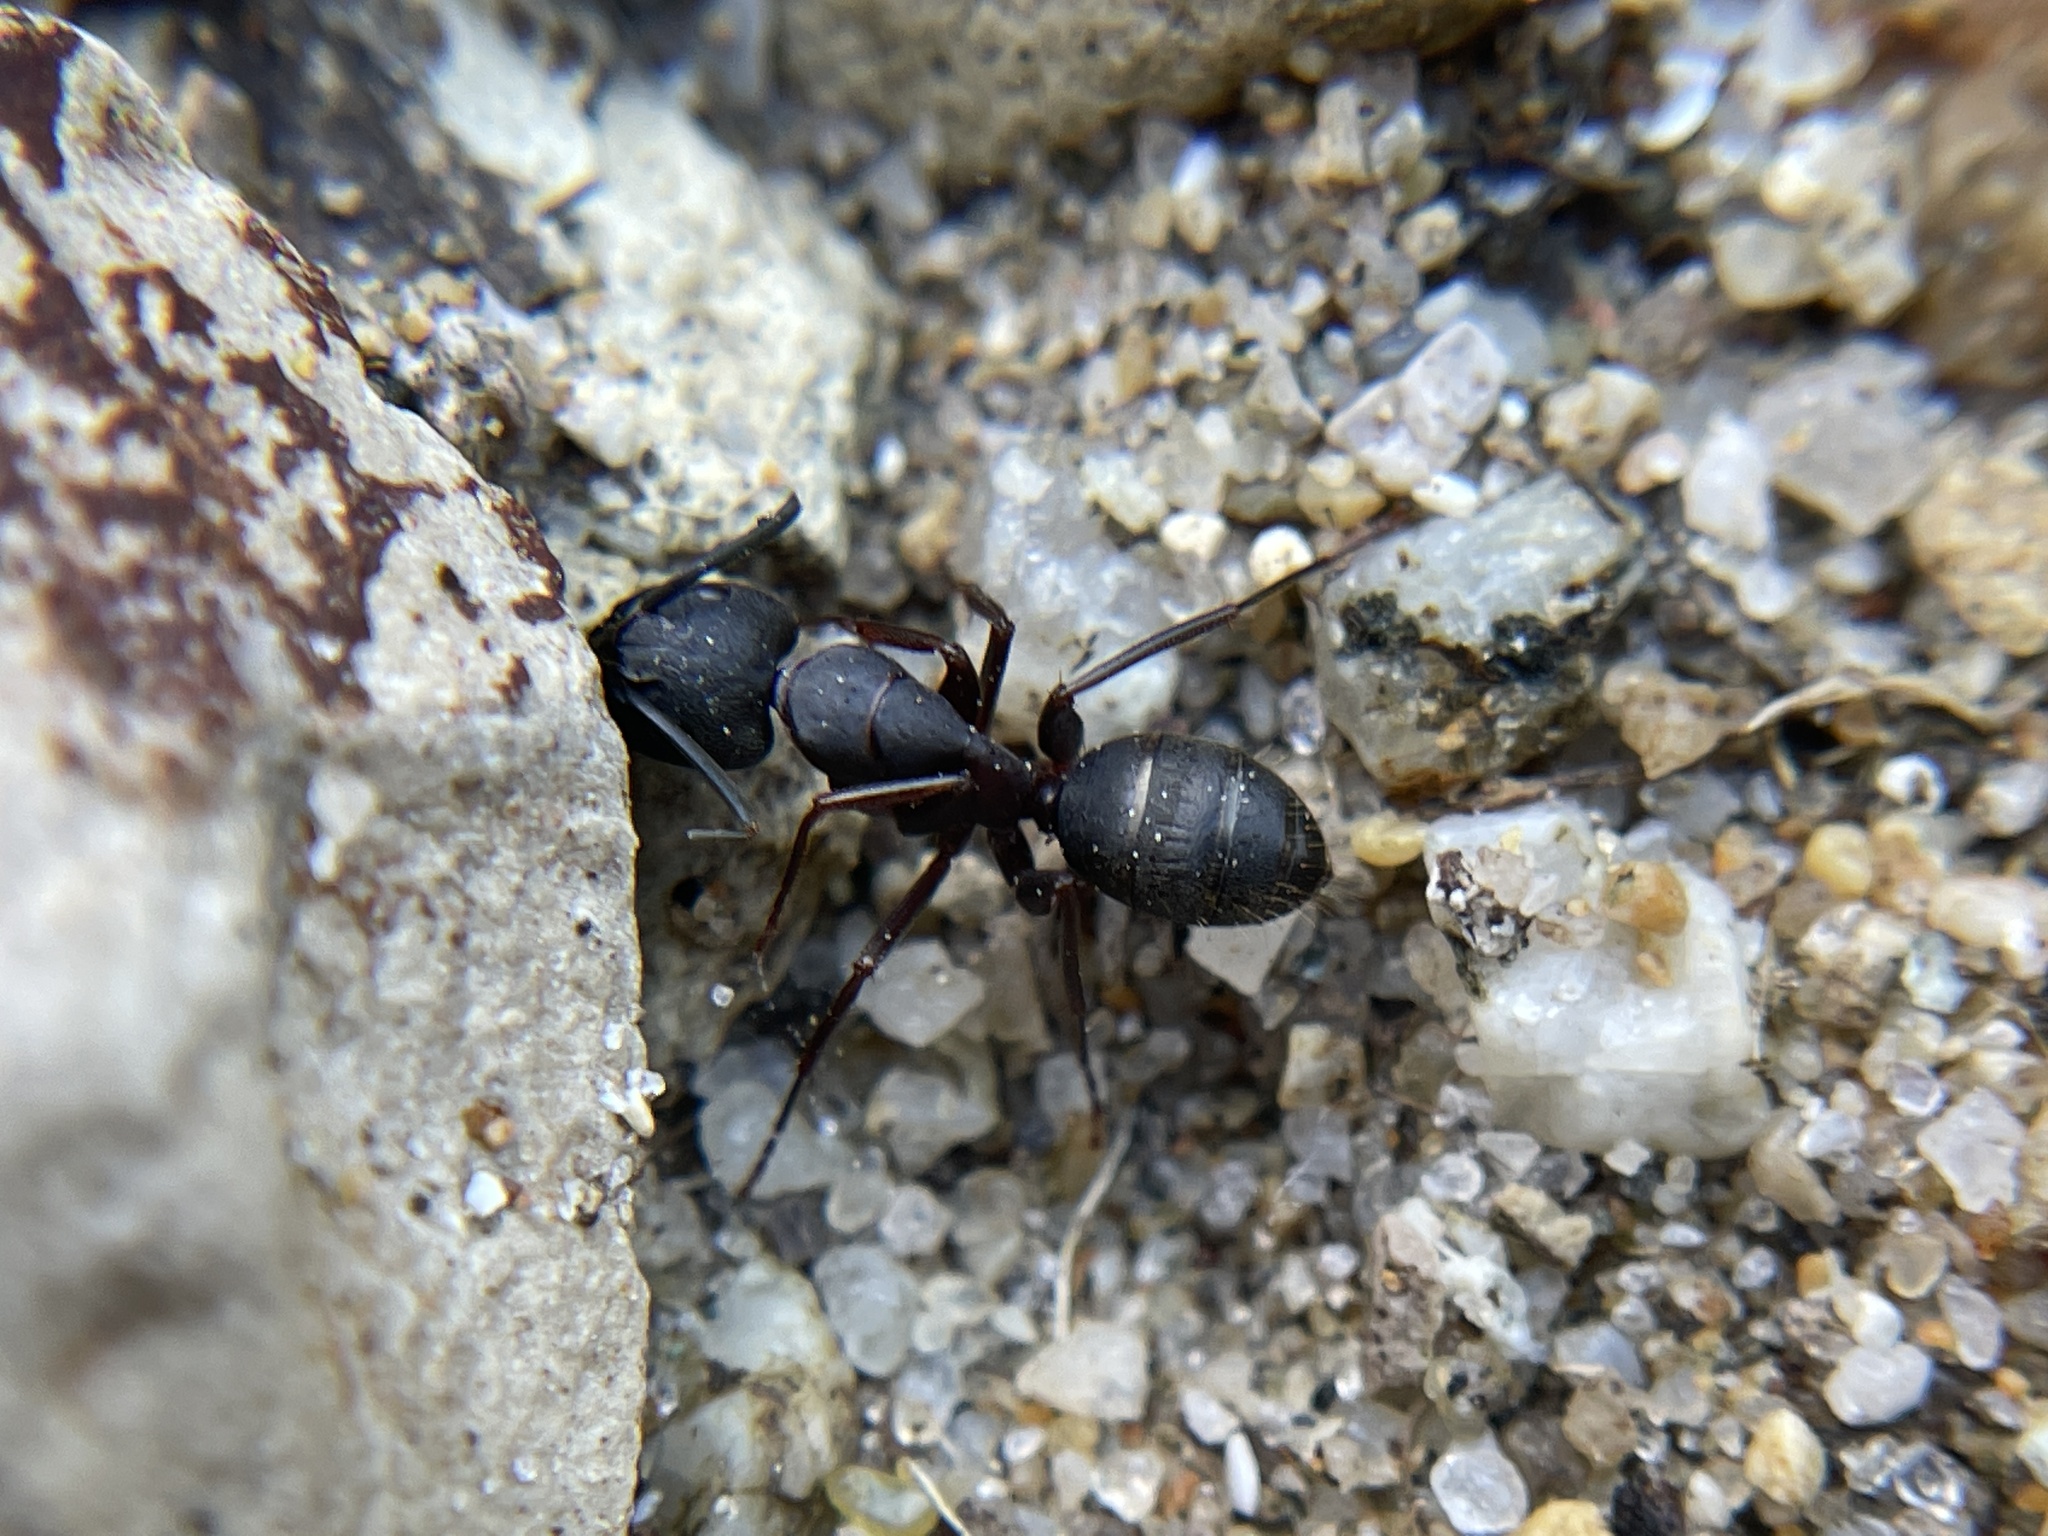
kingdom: Animalia
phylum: Arthropoda
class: Insecta
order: Hymenoptera
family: Formicidae
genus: Camponotus
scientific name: Camponotus vicinus
